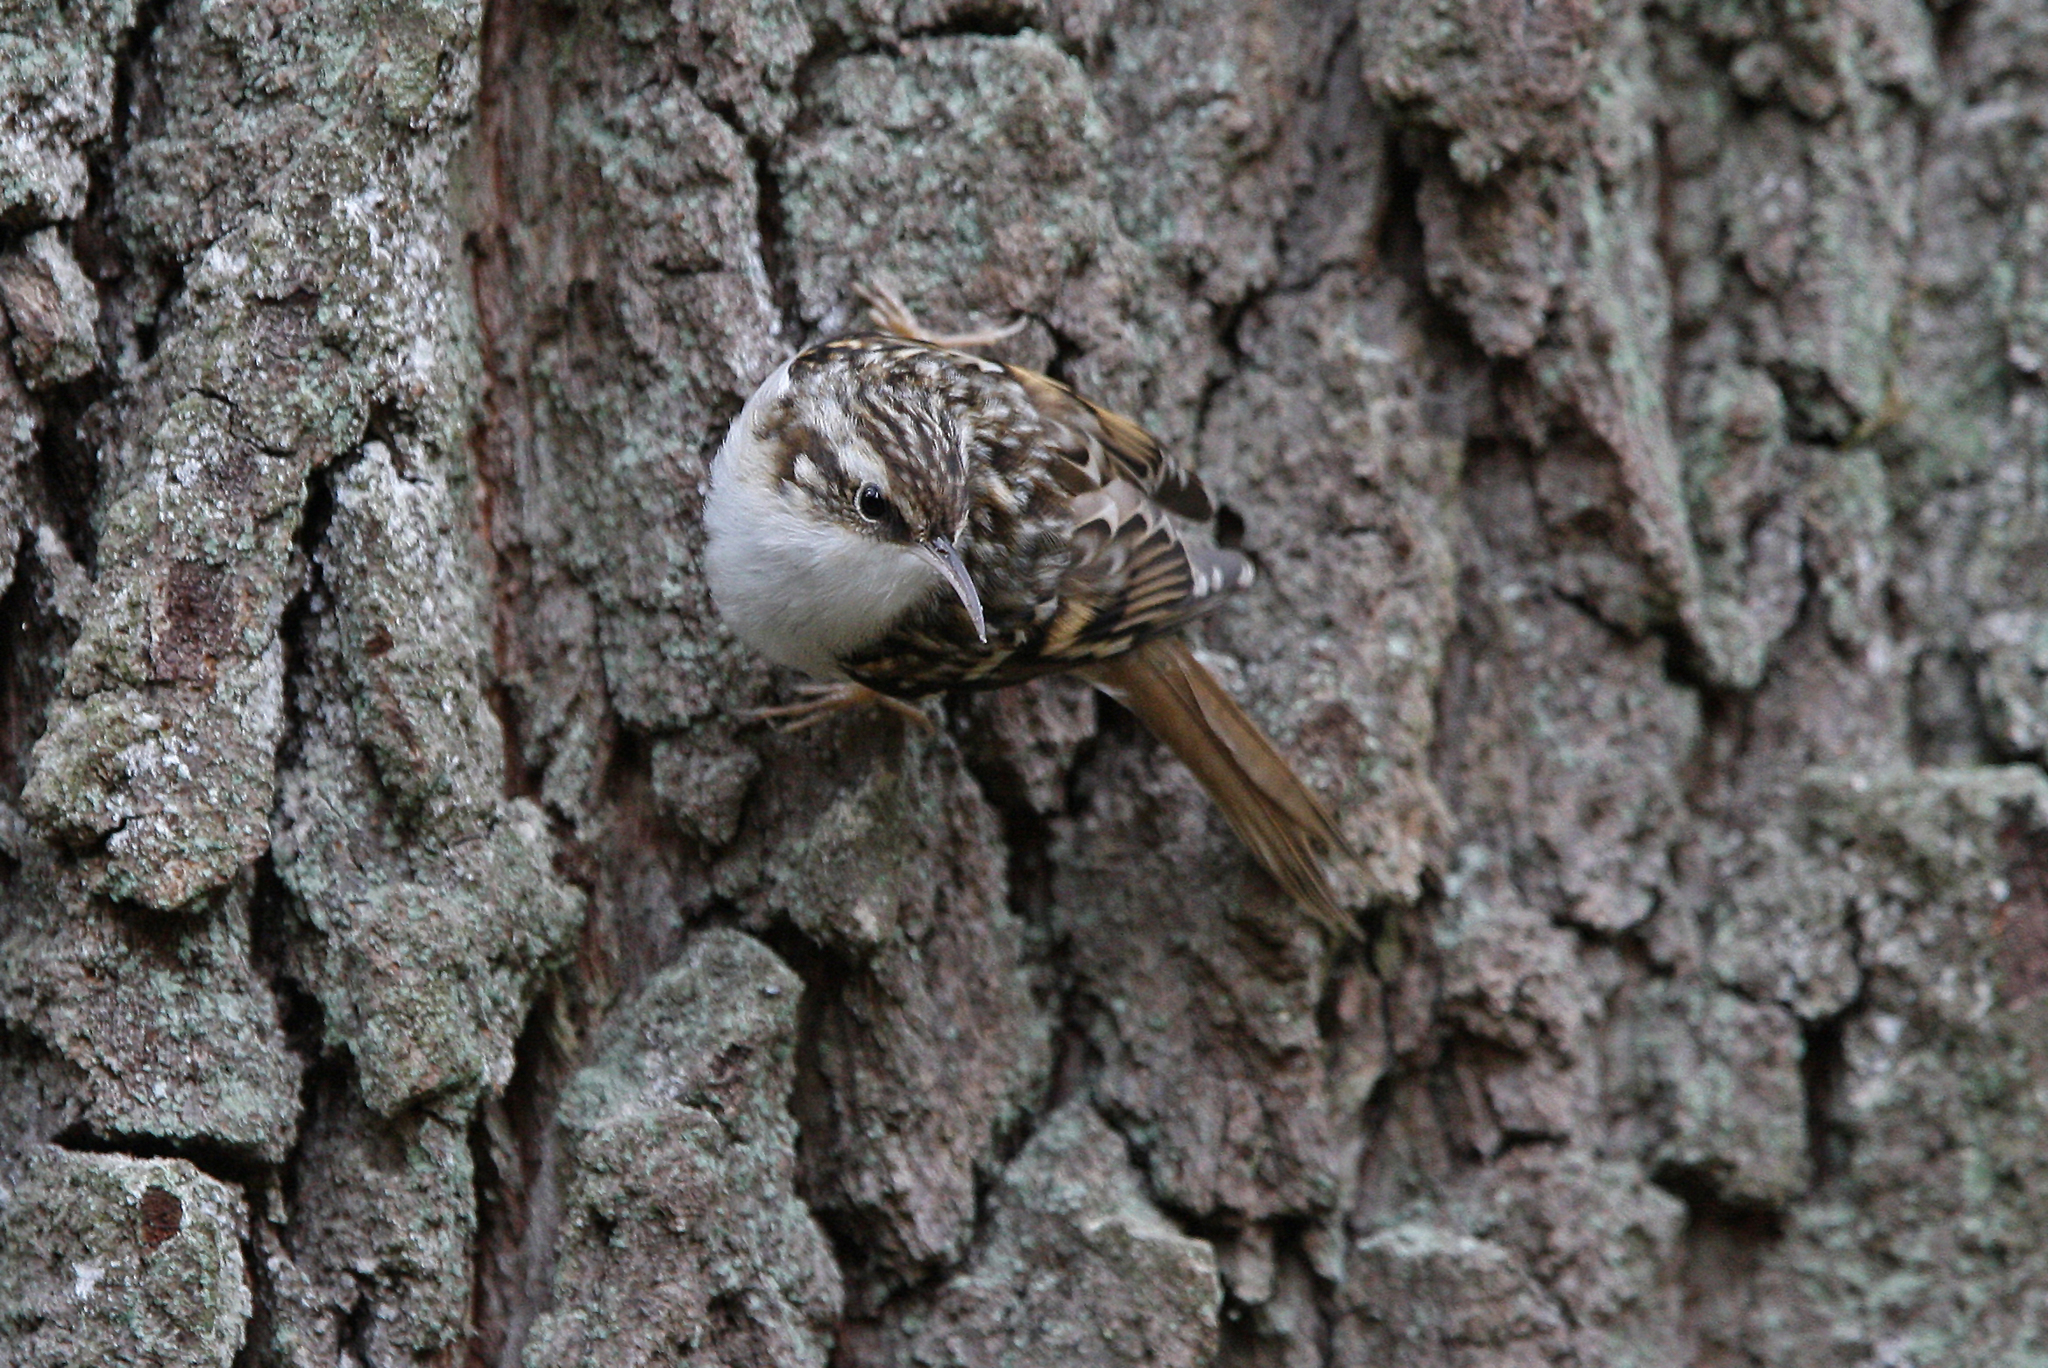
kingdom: Animalia
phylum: Chordata
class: Aves
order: Passeriformes
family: Certhiidae
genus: Certhia
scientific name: Certhia brachydactyla
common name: Short-toed treecreeper
